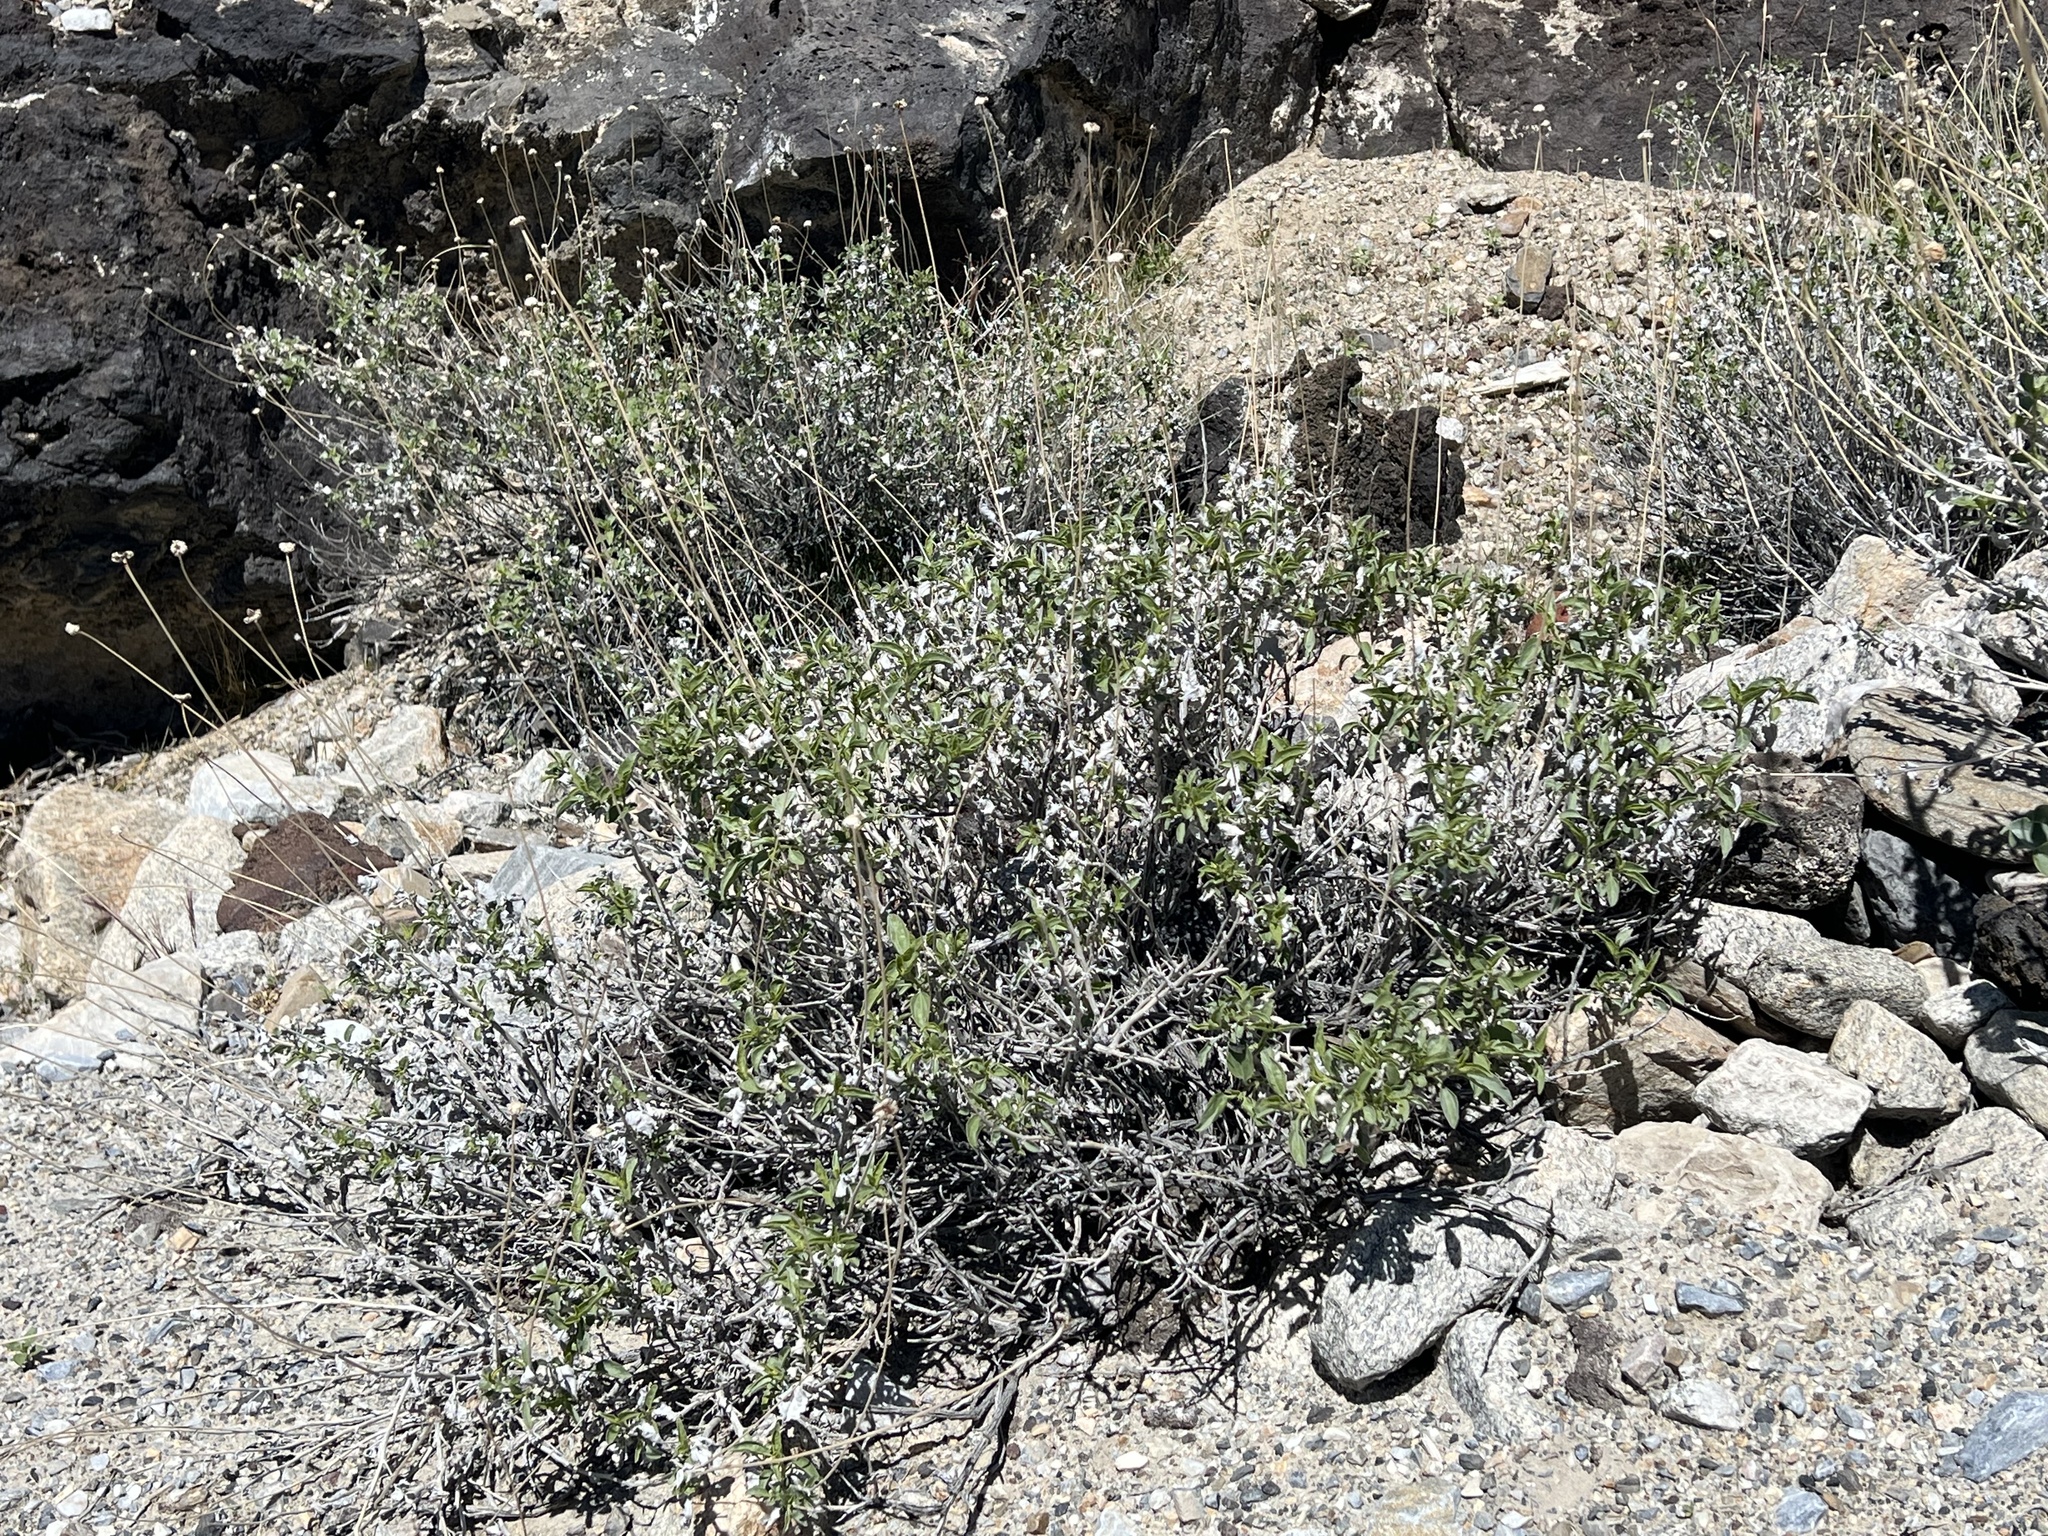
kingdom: Plantae
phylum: Tracheophyta
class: Magnoliopsida
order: Asterales
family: Asteraceae
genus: Encelia
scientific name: Encelia actoni
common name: Acton encelia
